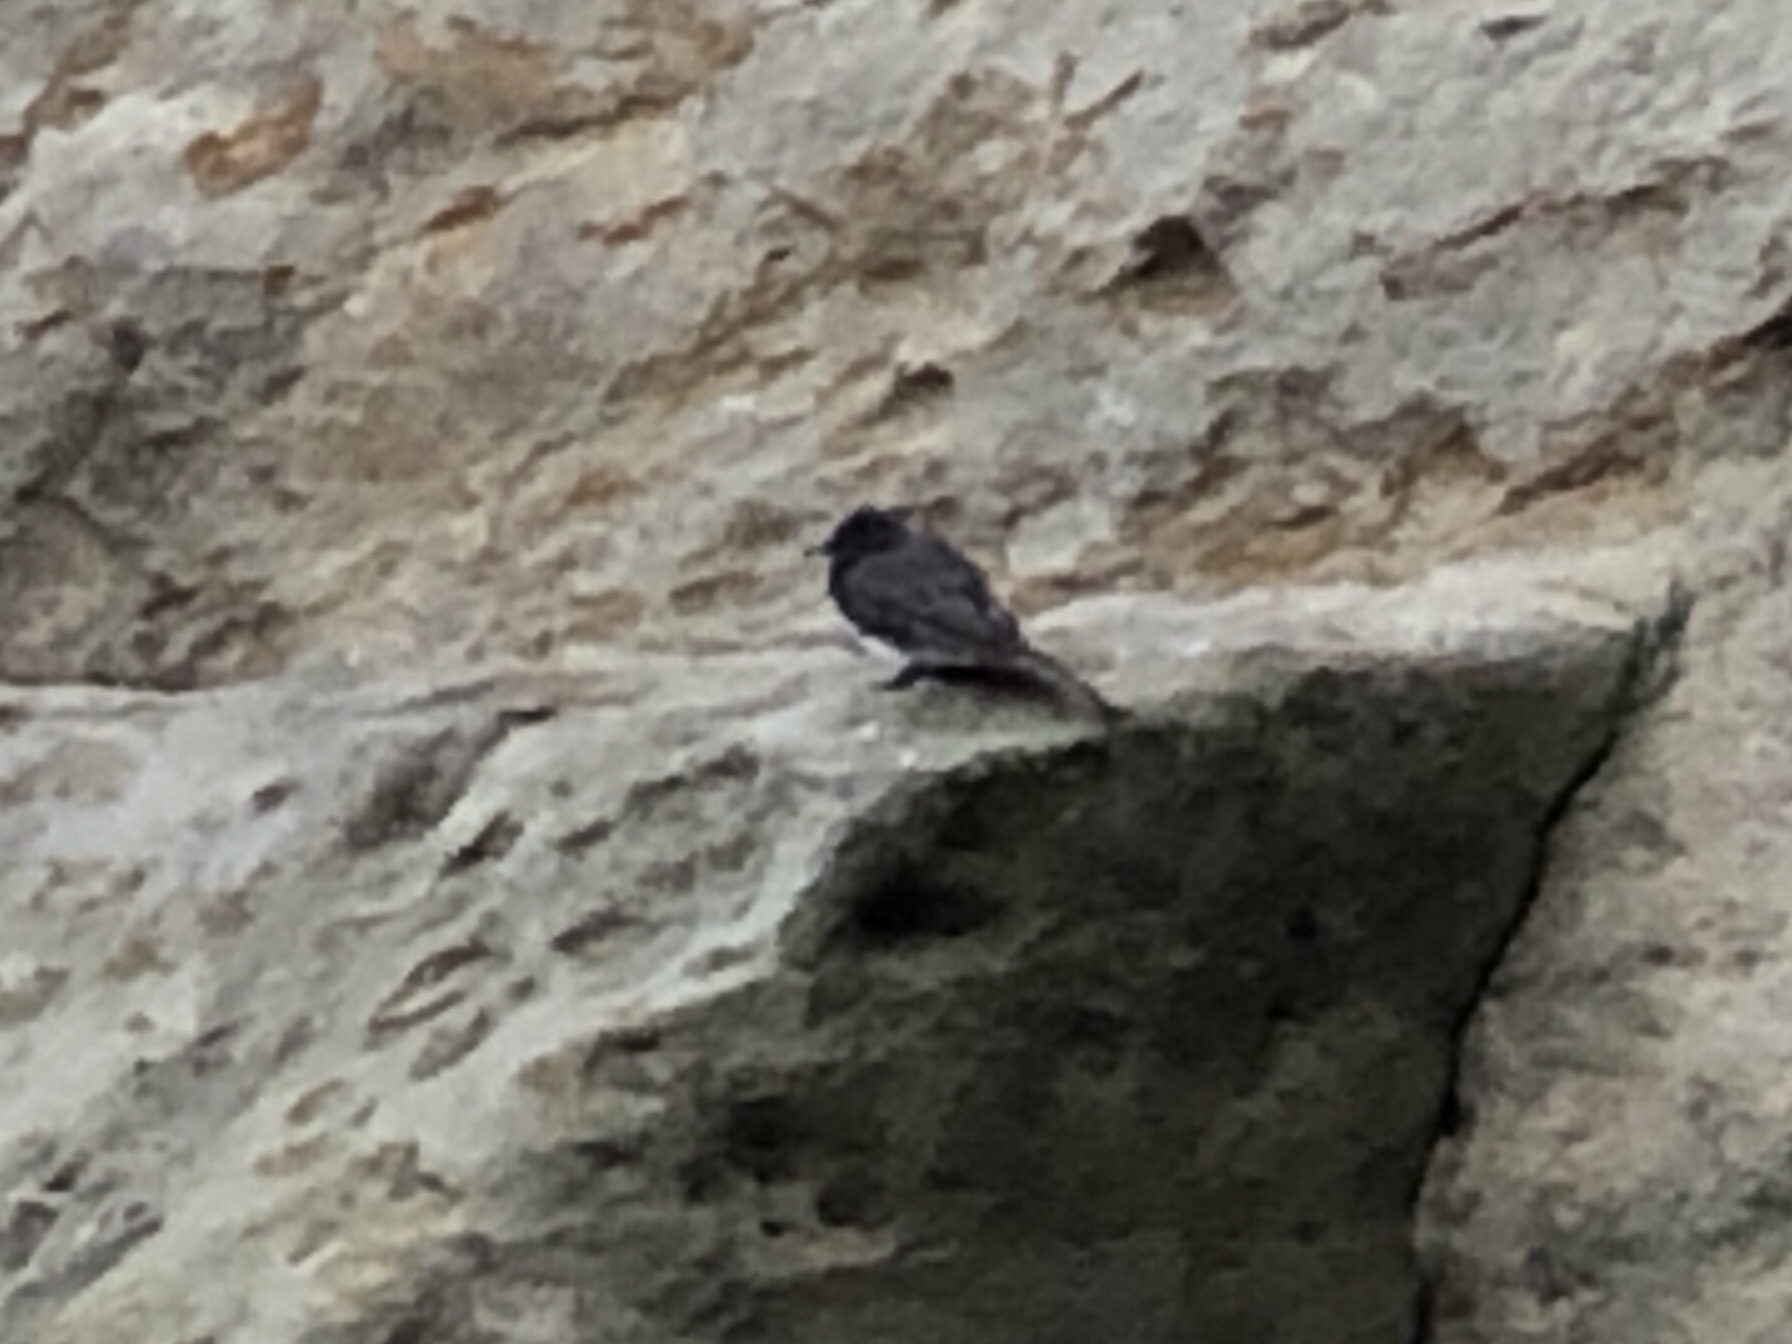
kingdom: Animalia
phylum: Chordata
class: Aves
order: Passeriformes
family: Tyrannidae
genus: Sayornis
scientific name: Sayornis nigricans
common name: Black phoebe
